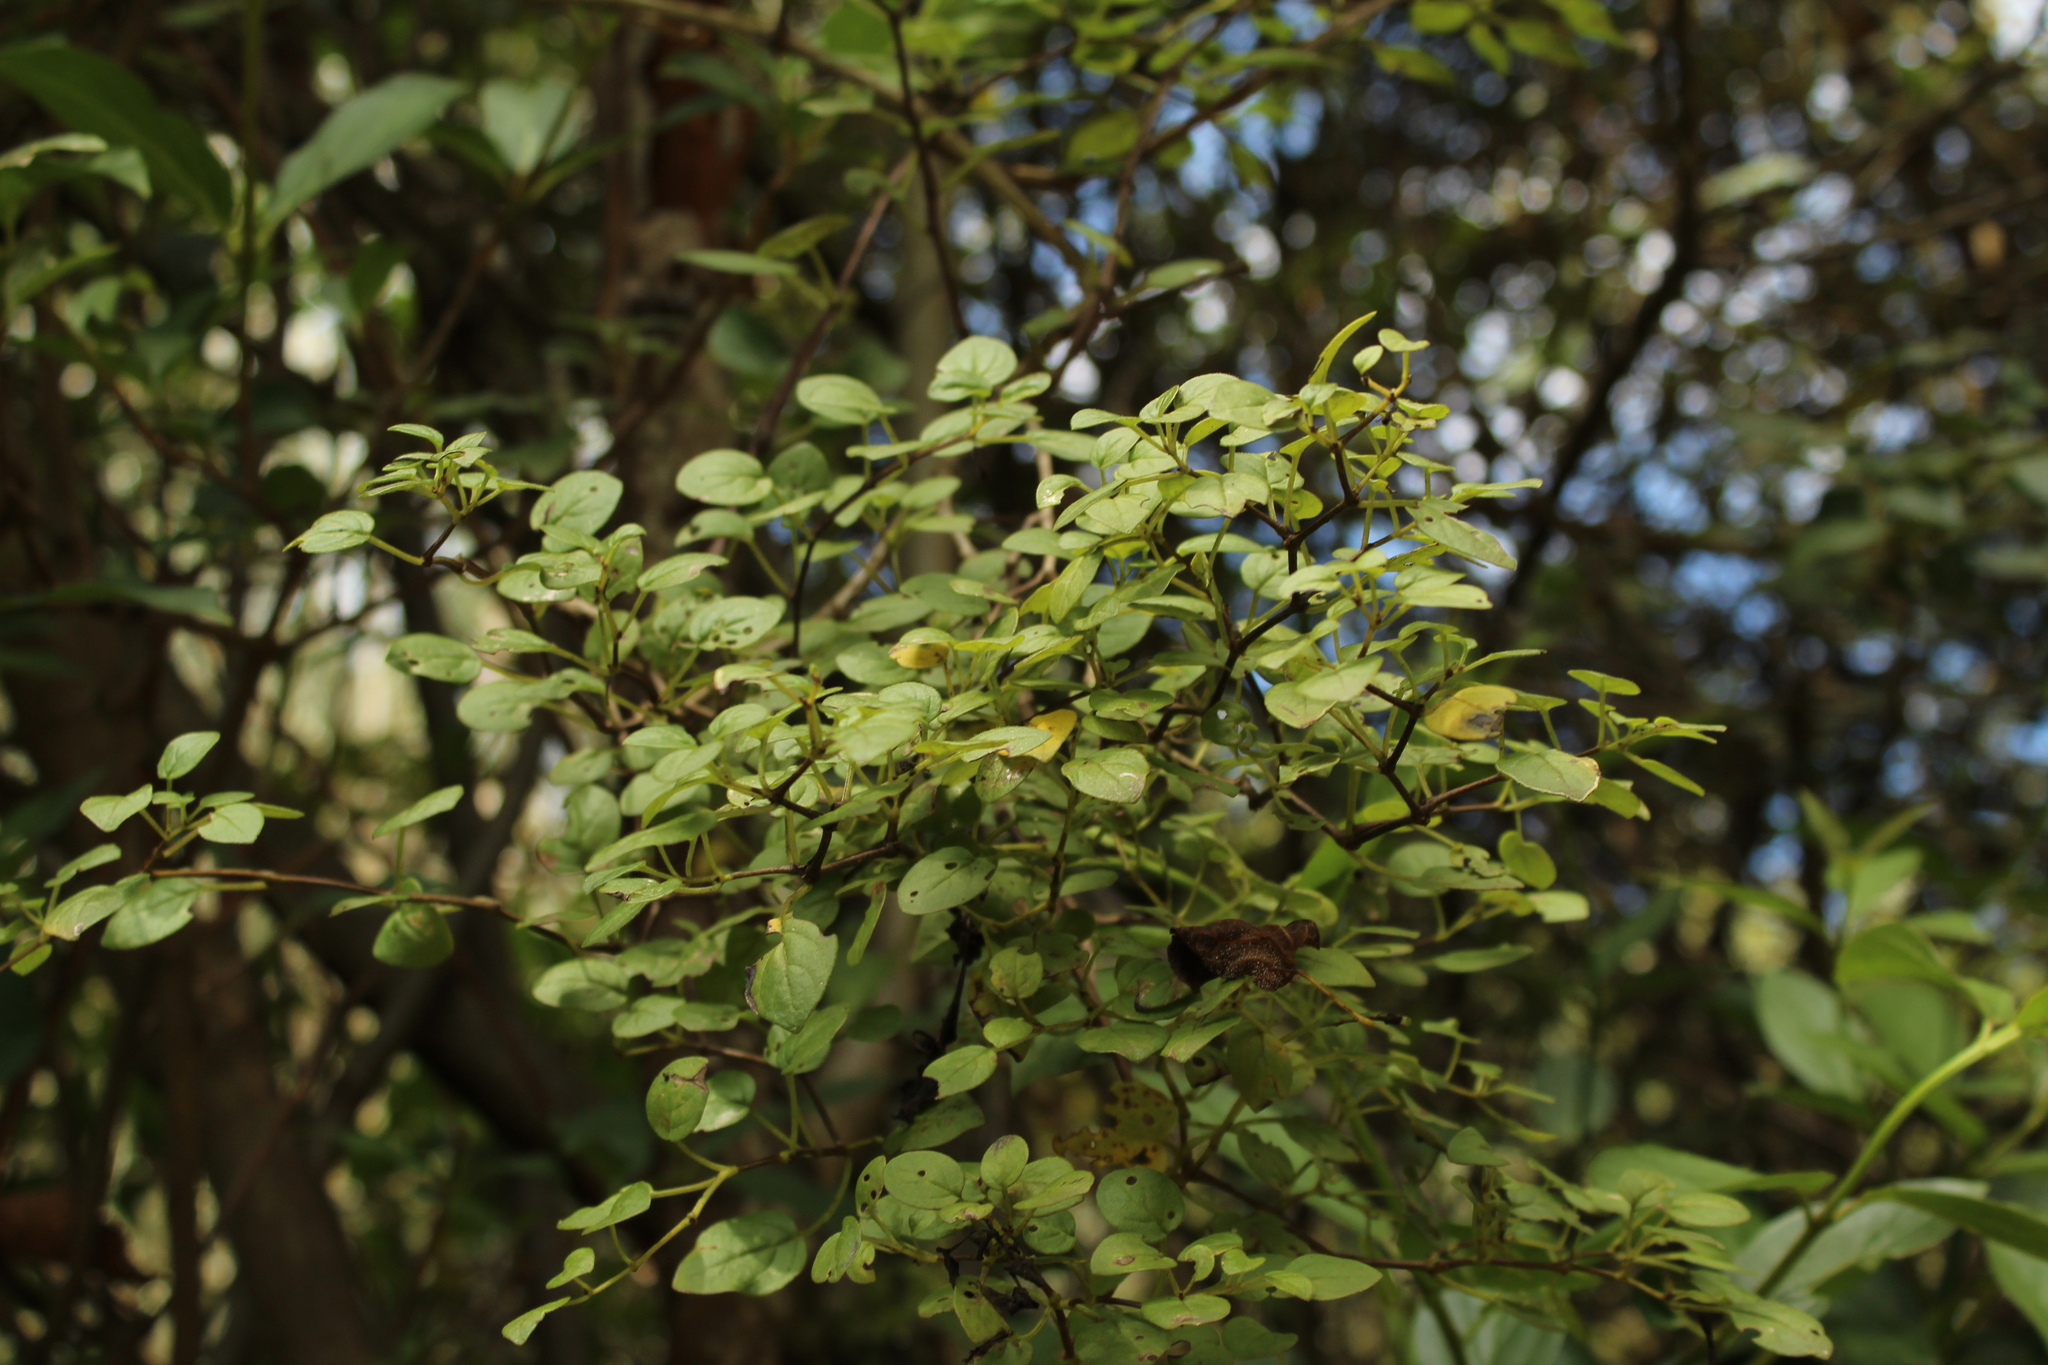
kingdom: Plantae
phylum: Tracheophyta
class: Magnoliopsida
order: Solanales
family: Solanaceae
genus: Salpichroa
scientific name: Salpichroa tristis
